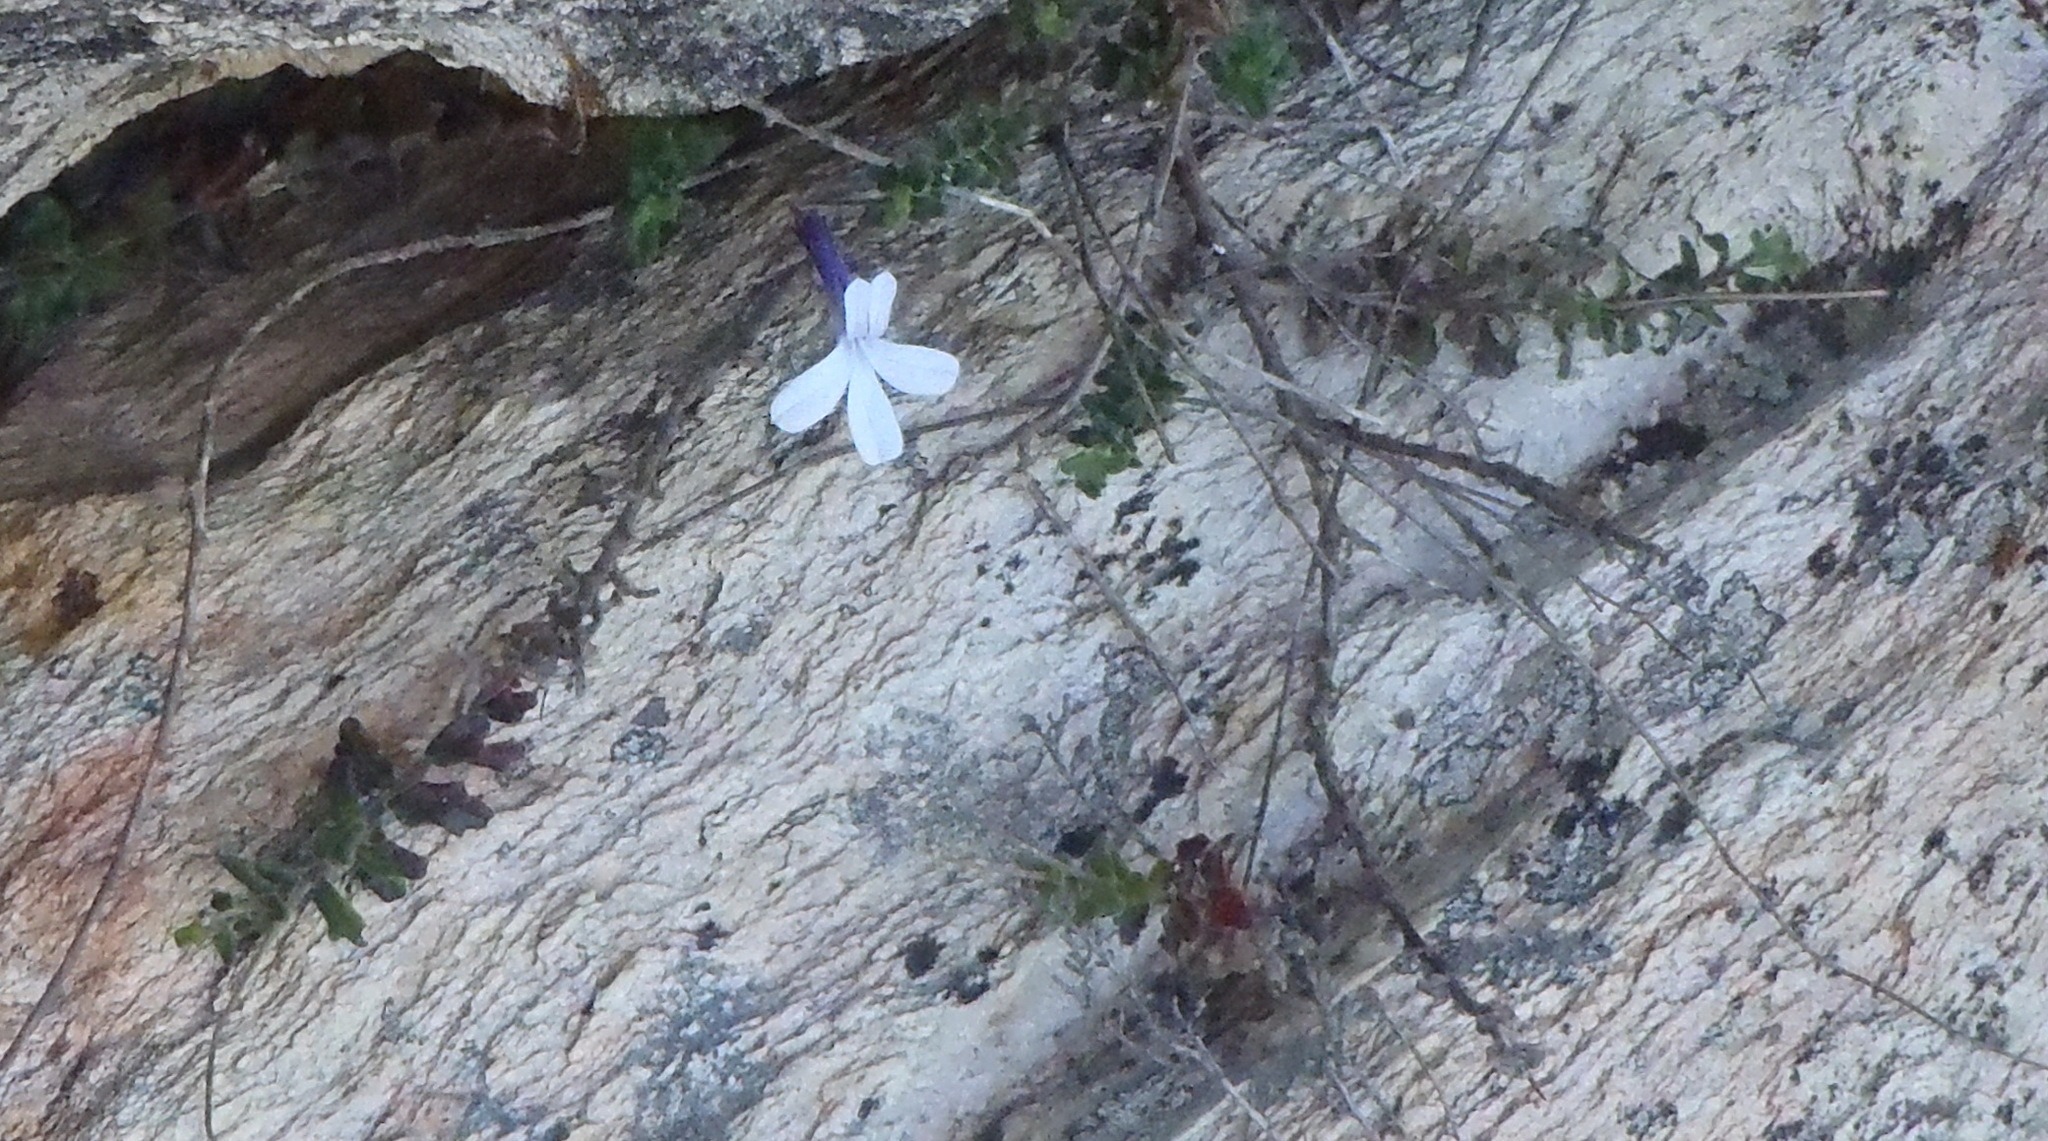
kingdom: Plantae
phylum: Tracheophyta
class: Magnoliopsida
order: Asterales
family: Campanulaceae
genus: Lobelia
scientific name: Lobelia dichroma
